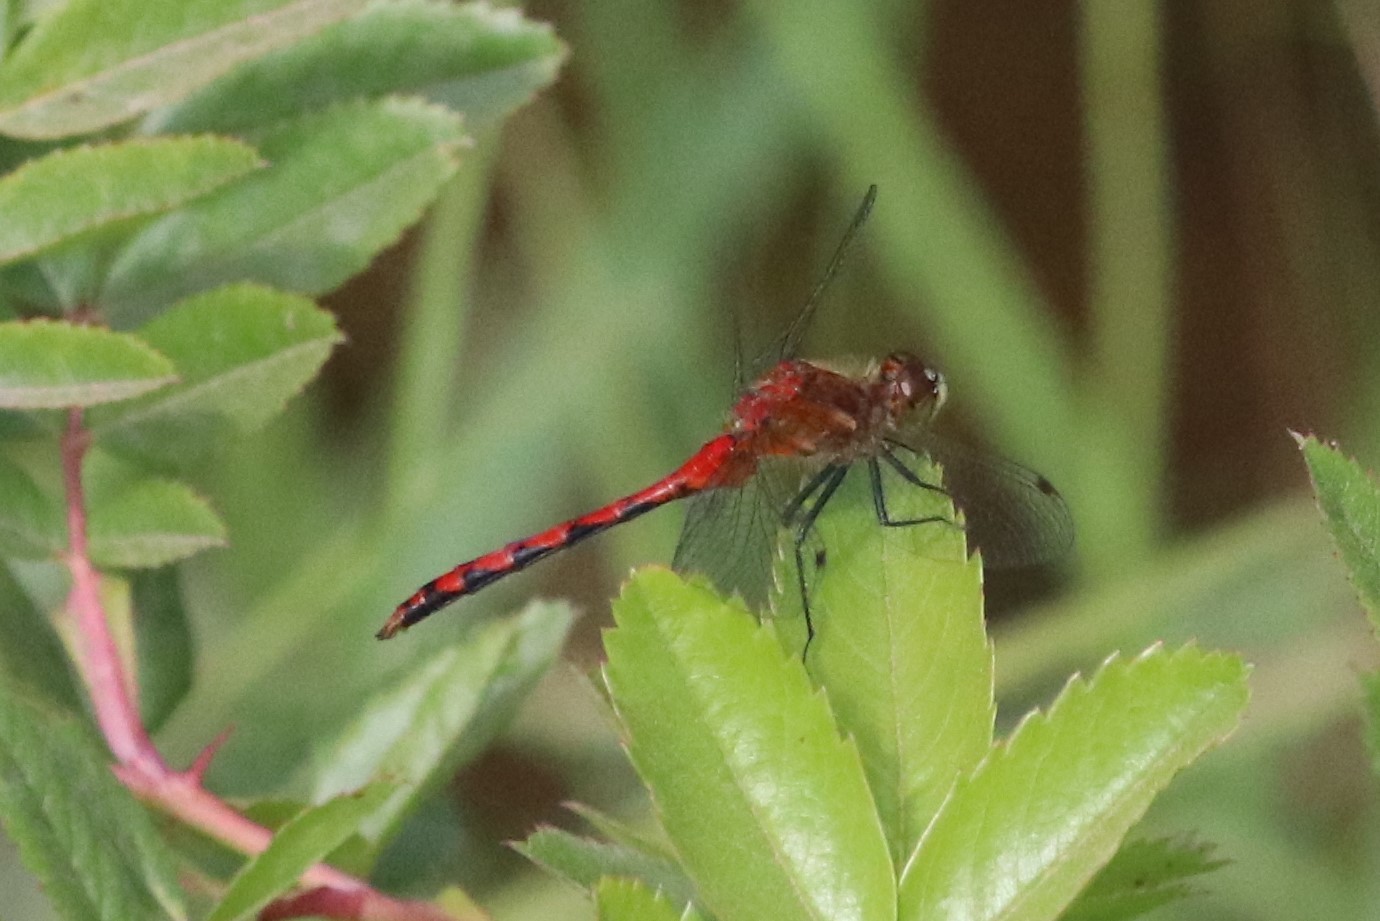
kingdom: Animalia
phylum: Arthropoda
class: Insecta
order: Odonata
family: Libellulidae
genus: Sympetrum
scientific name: Sympetrum obtrusum
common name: White-faced meadowhawk
